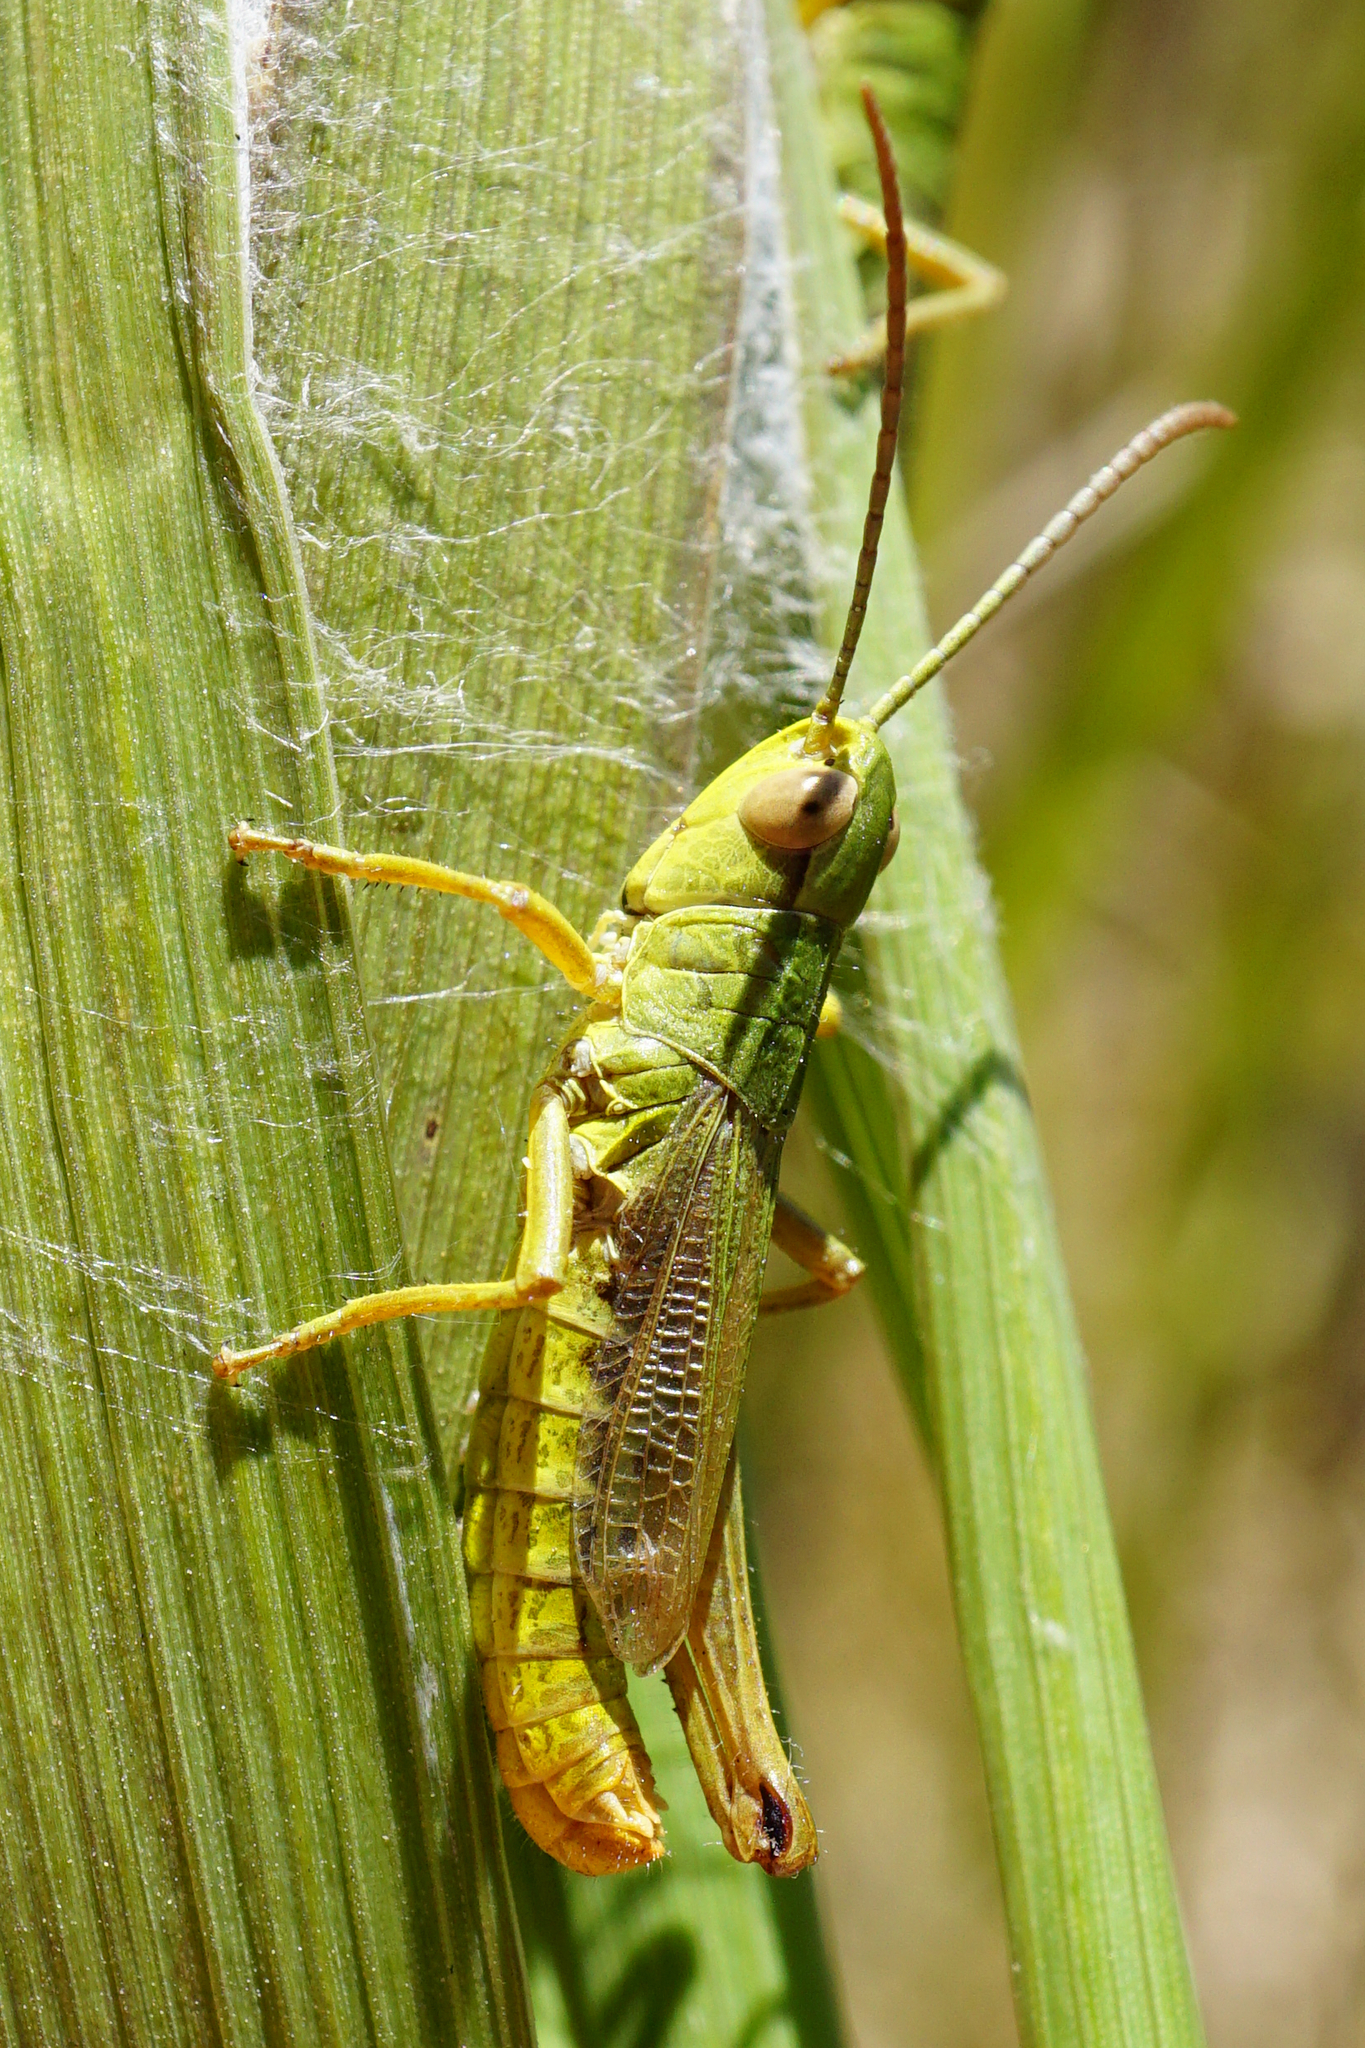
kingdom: Animalia
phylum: Arthropoda
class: Insecta
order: Orthoptera
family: Acrididae
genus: Pseudochorthippus
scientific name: Pseudochorthippus parallelus
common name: Meadow grasshopper
